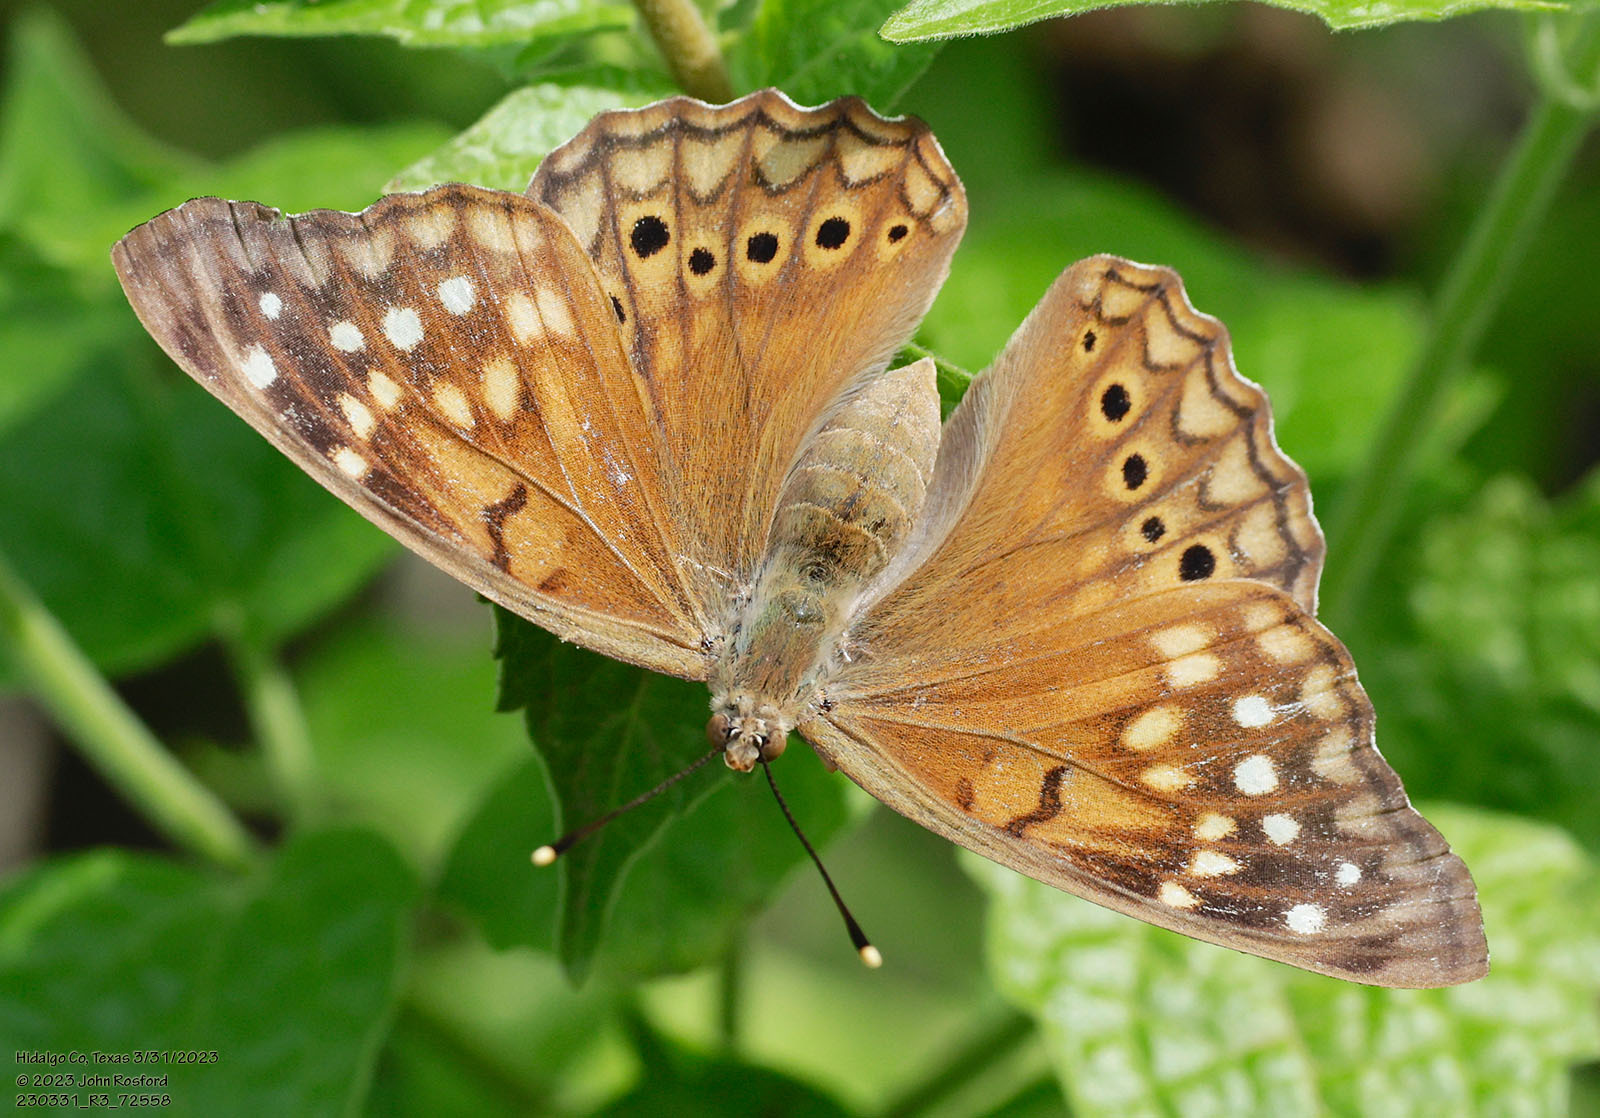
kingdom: Animalia
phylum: Arthropoda
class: Insecta
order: Lepidoptera
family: Nymphalidae
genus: Asterocampa
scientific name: Asterocampa clyton
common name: Tawny emperor
